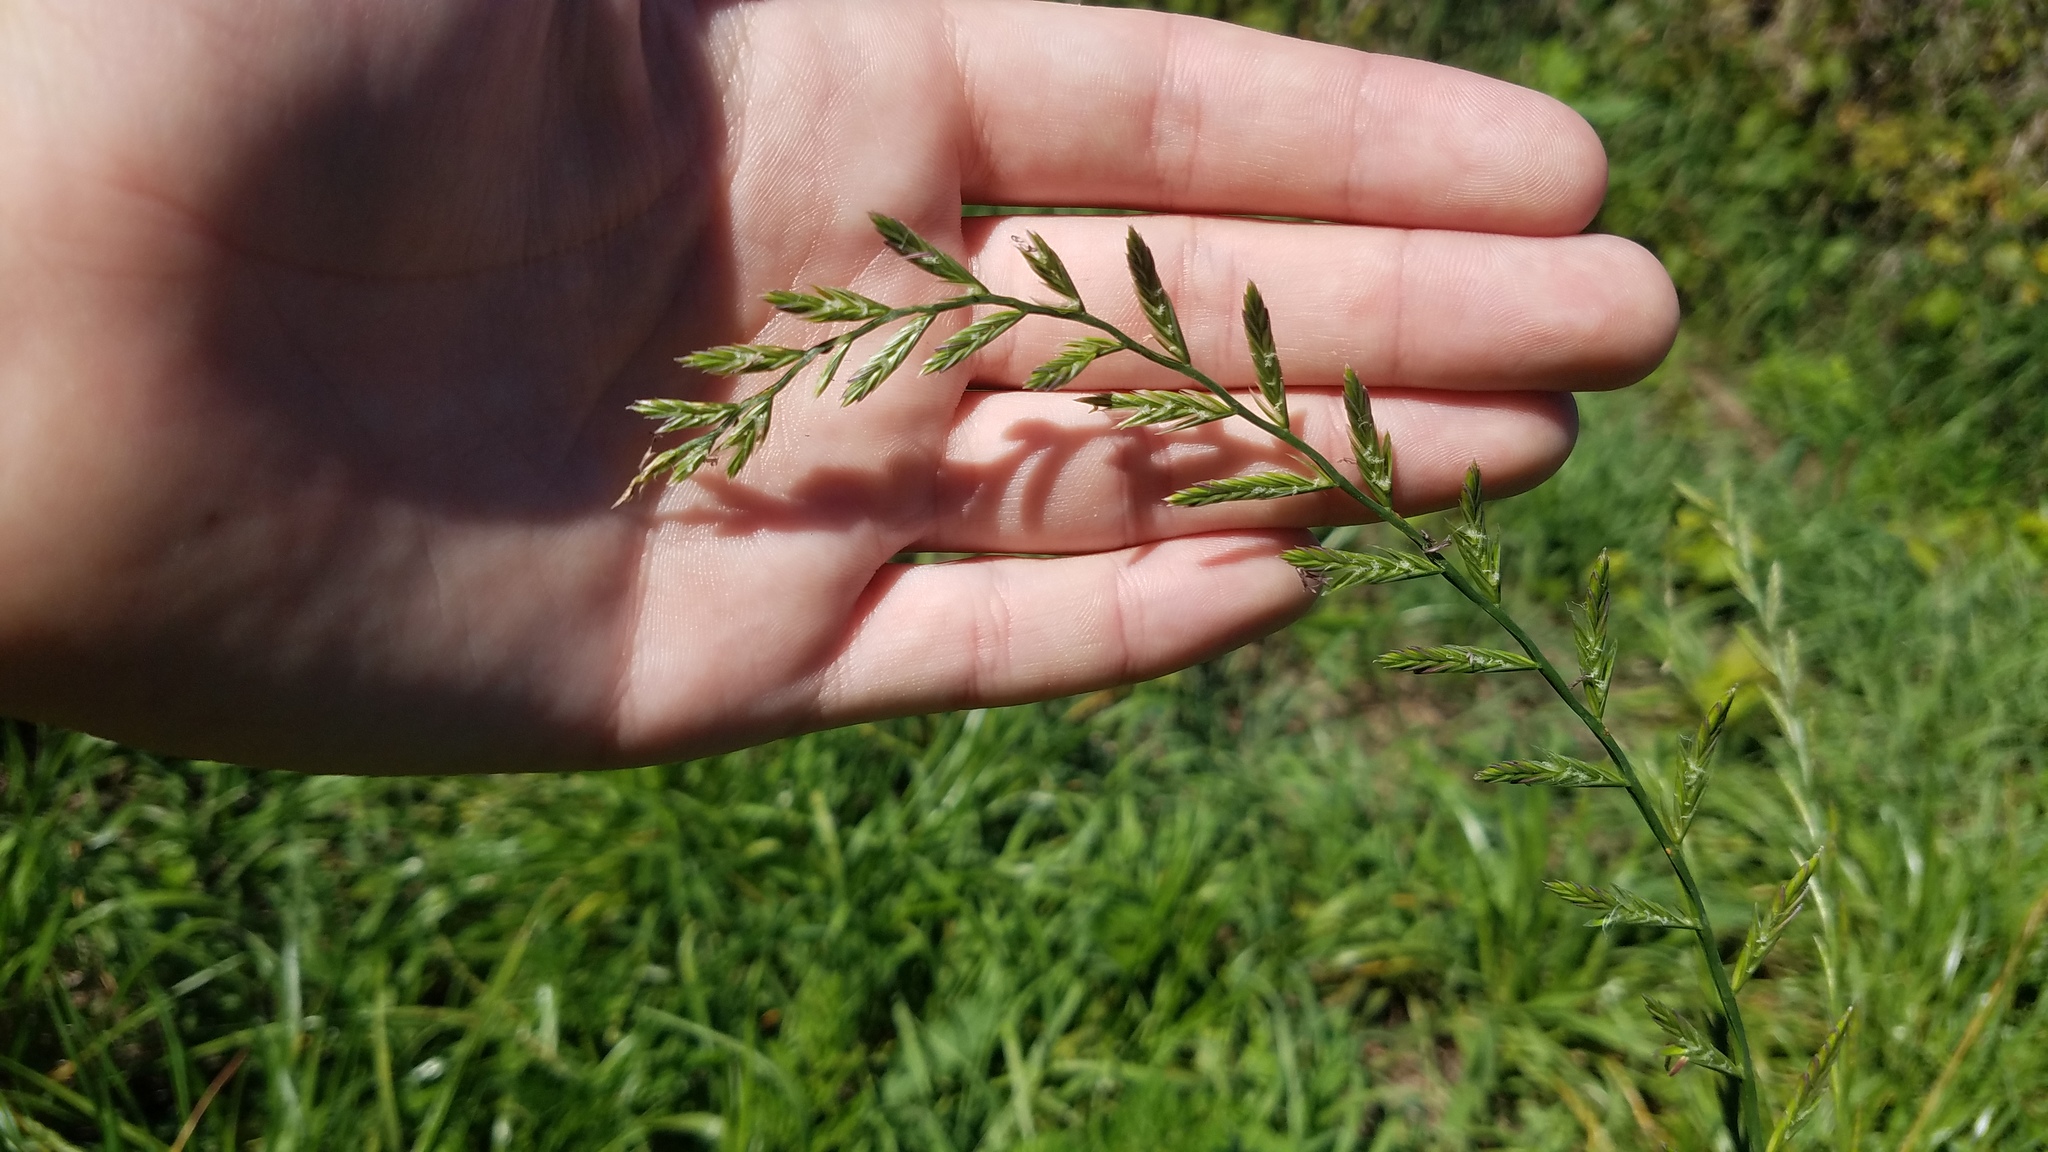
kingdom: Plantae
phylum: Tracheophyta
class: Liliopsida
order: Poales
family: Poaceae
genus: Lolium
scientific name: Lolium perenne
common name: Perennial ryegrass
